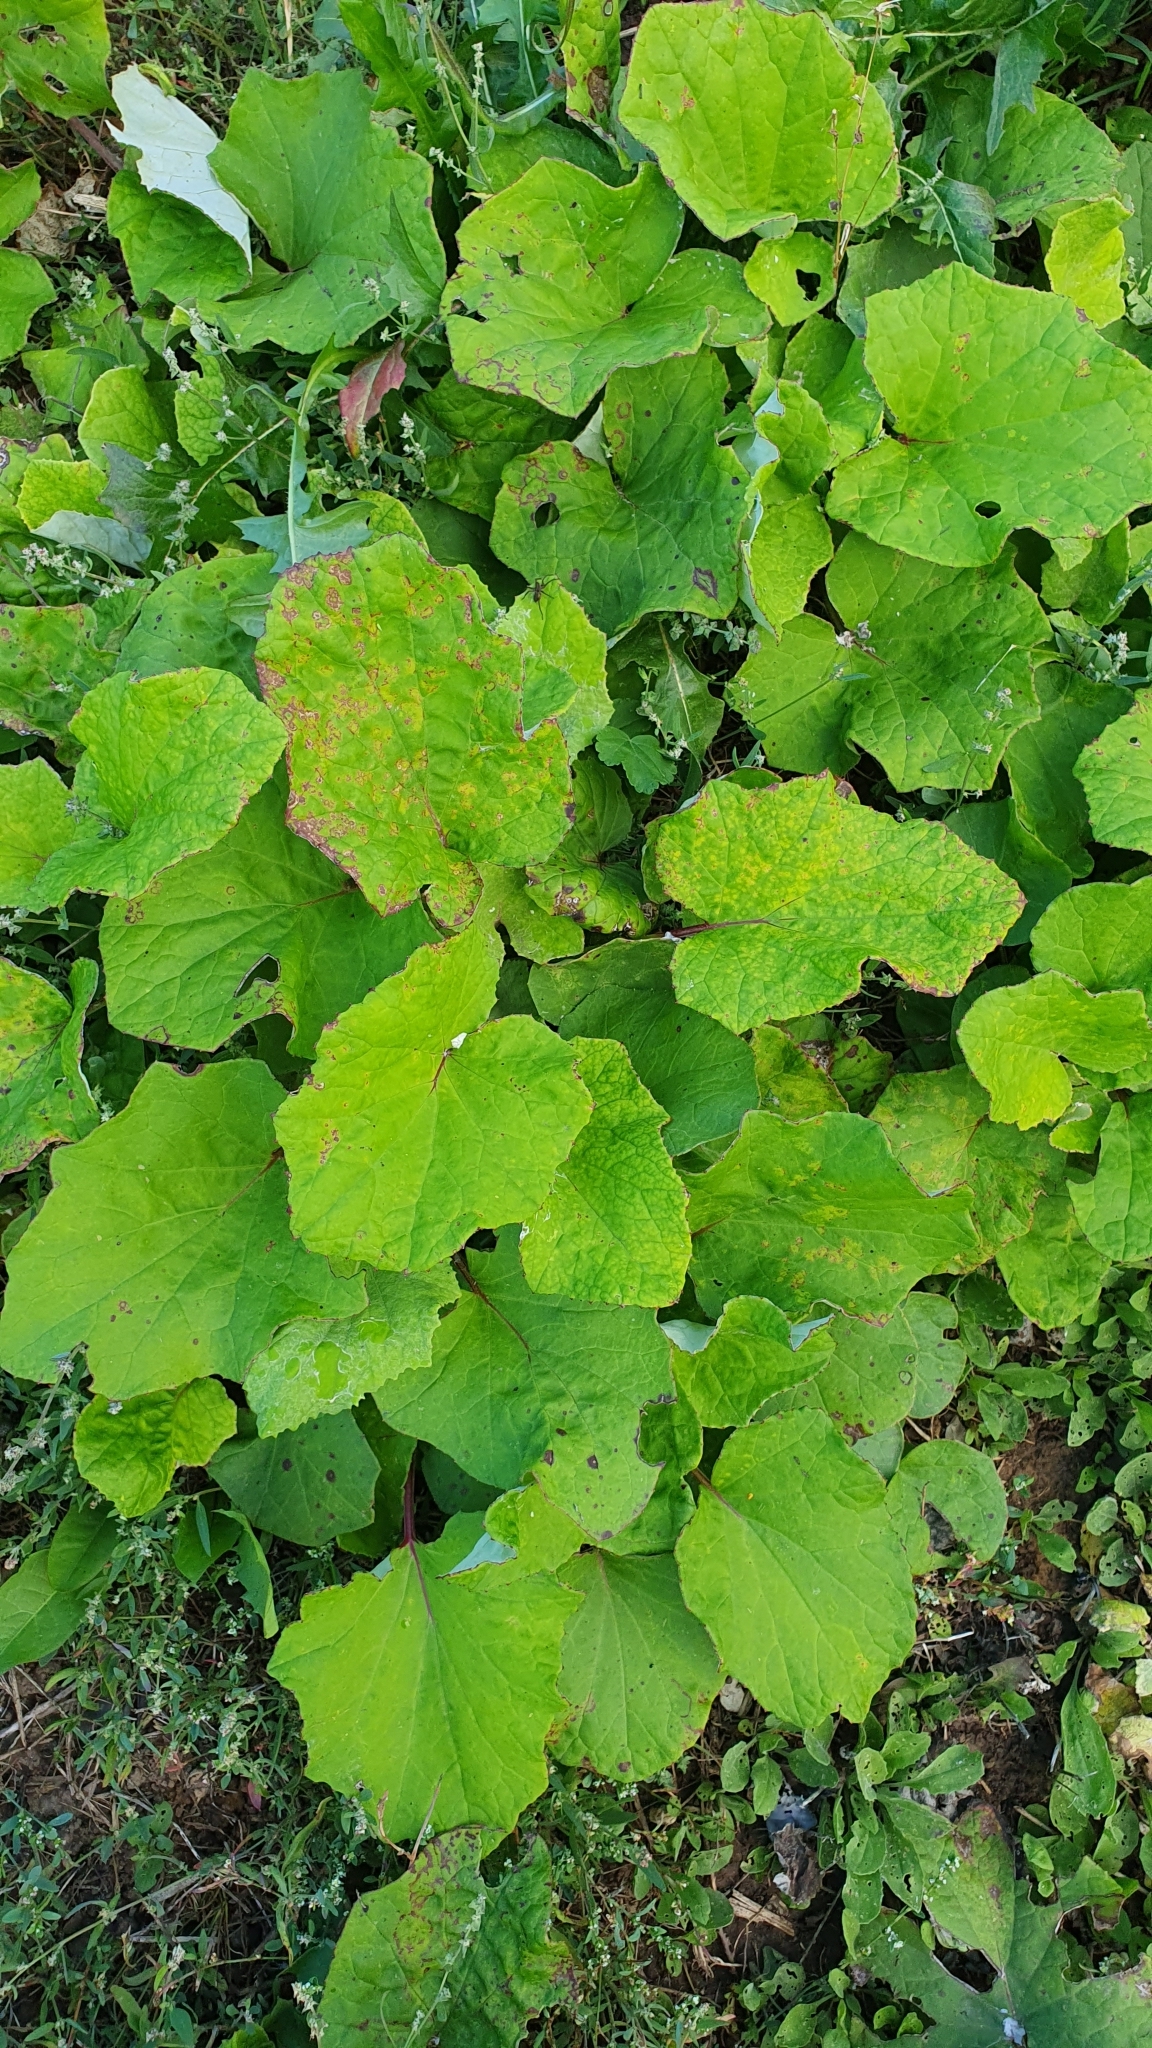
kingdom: Plantae
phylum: Tracheophyta
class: Magnoliopsida
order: Asterales
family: Asteraceae
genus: Tussilago
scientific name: Tussilago farfara
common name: Coltsfoot
